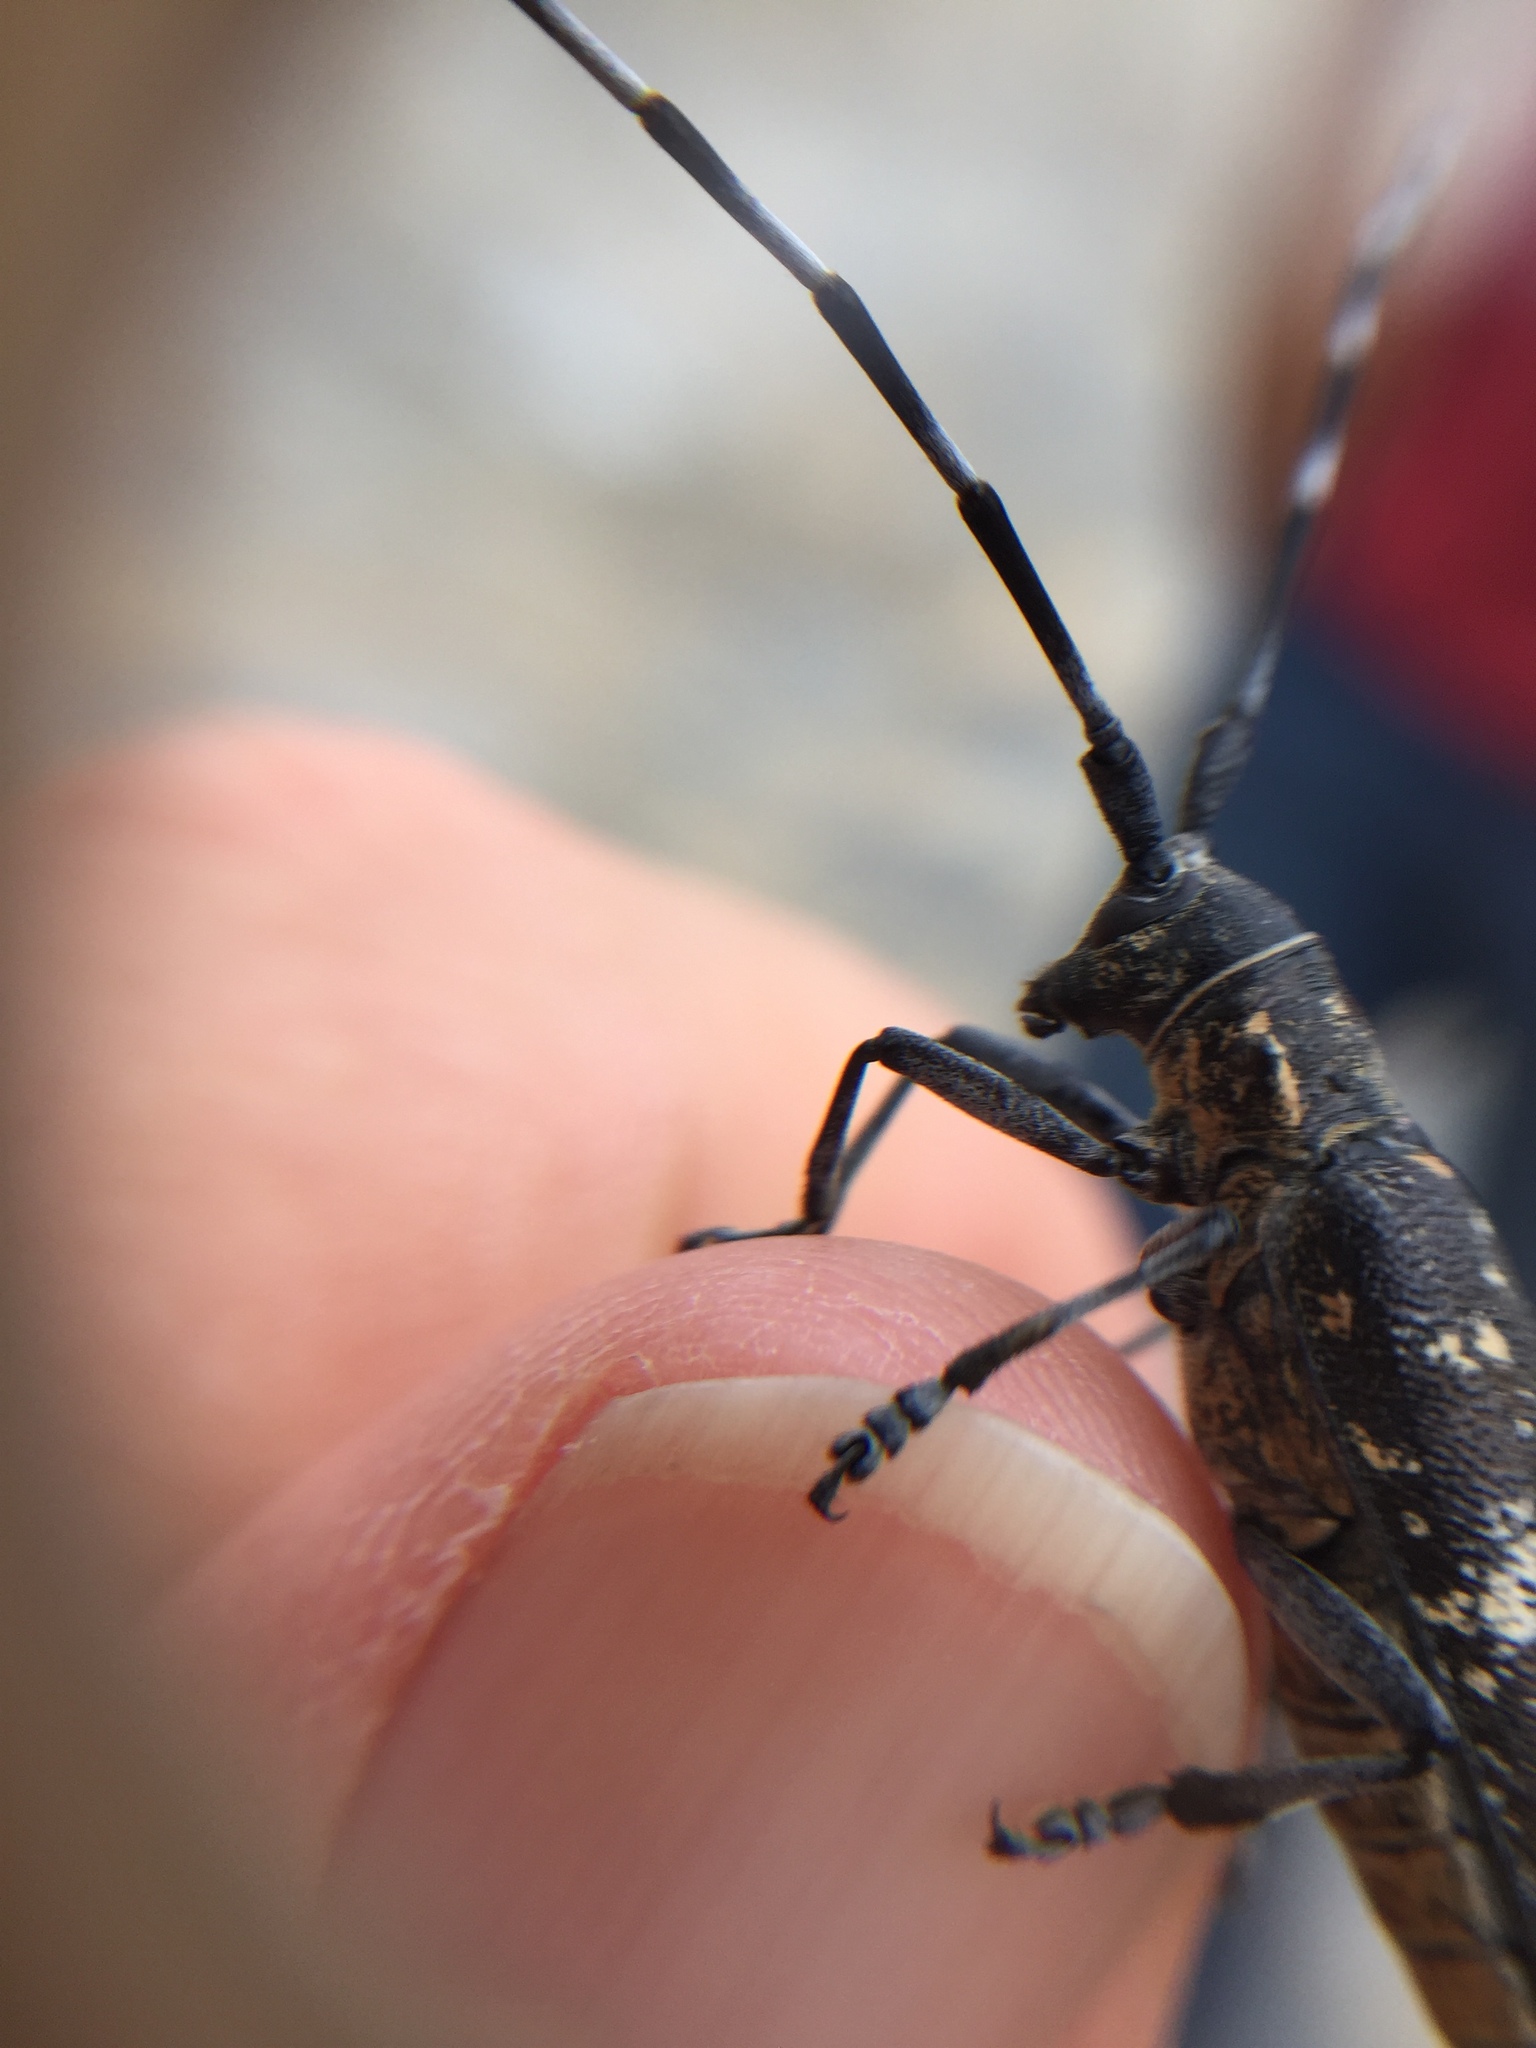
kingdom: Animalia
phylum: Arthropoda
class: Insecta
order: Coleoptera
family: Cerambycidae
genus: Monochamus
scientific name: Monochamus galloprovincialis
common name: Pine sawyer
